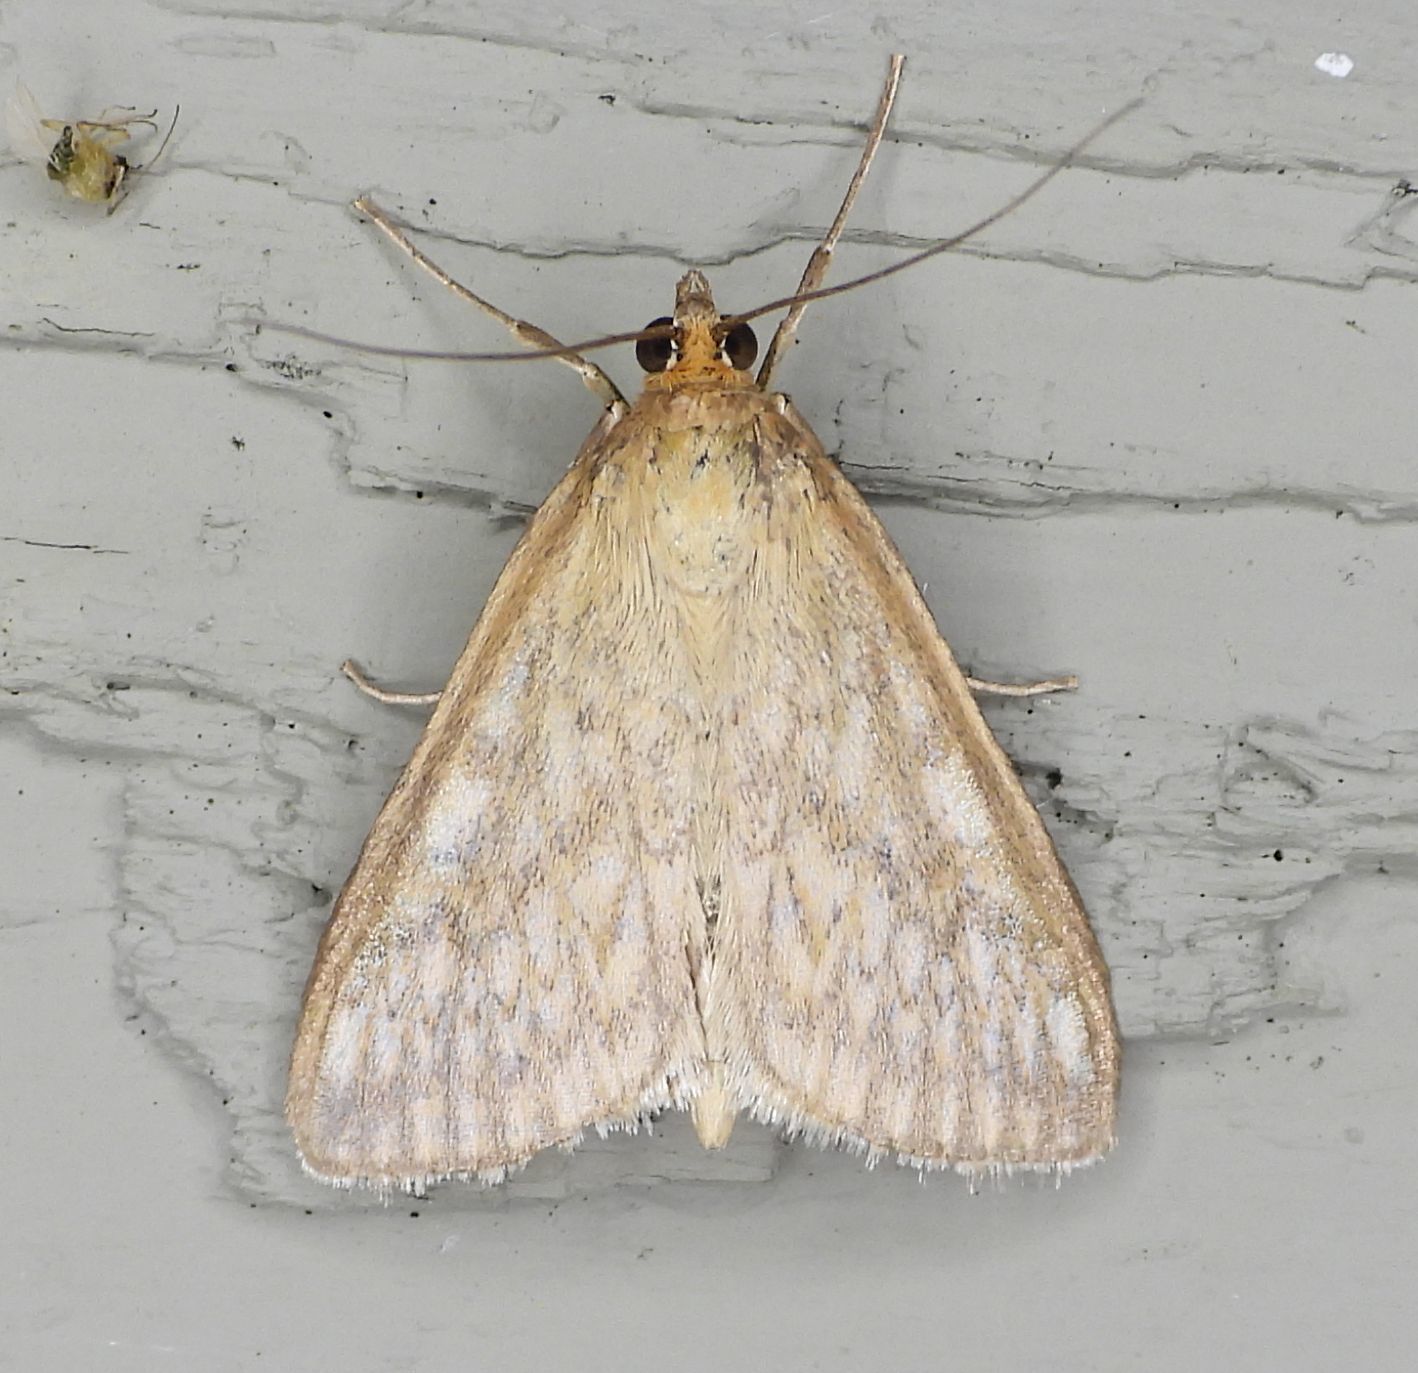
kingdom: Animalia
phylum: Arthropoda
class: Insecta
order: Lepidoptera
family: Crambidae
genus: Sitochroa
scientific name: Sitochroa chortalis
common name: Dimorphic sitochroa moth
